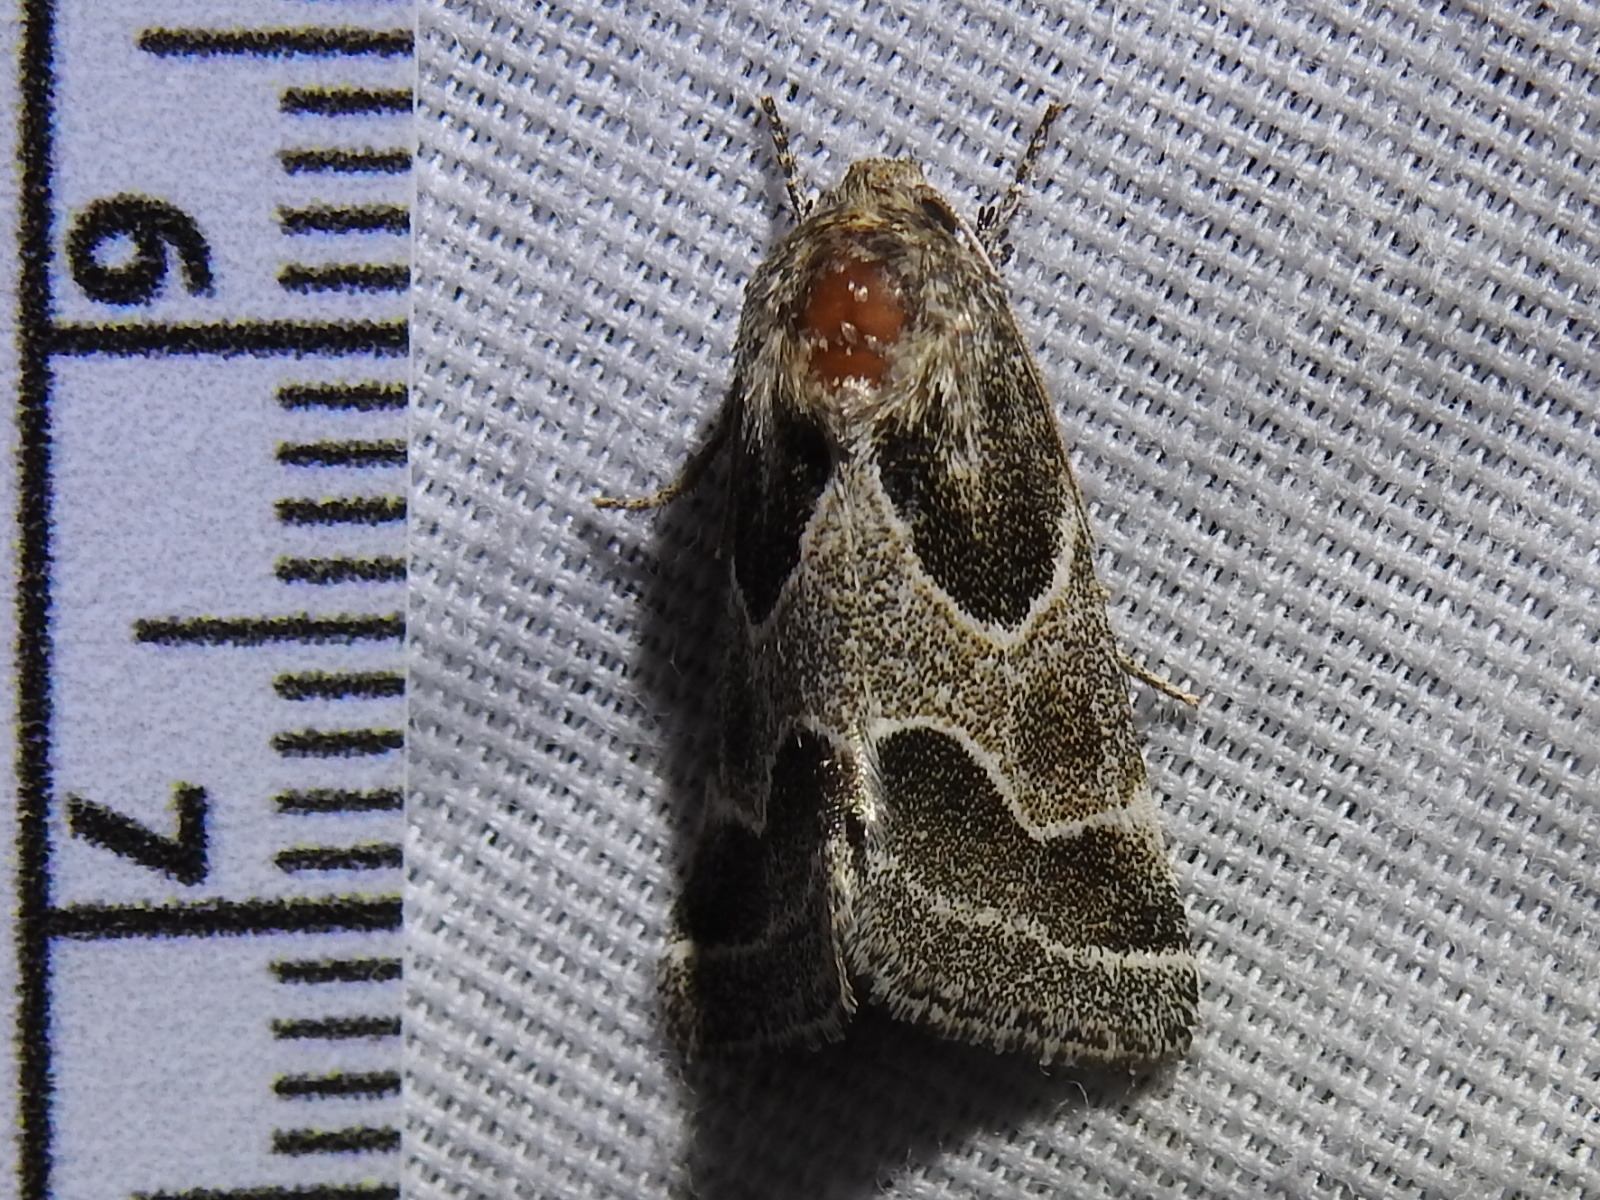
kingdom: Animalia
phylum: Arthropoda
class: Insecta
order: Lepidoptera
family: Noctuidae
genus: Schinia
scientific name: Schinia rivulosa
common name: Scarce meal-moth
